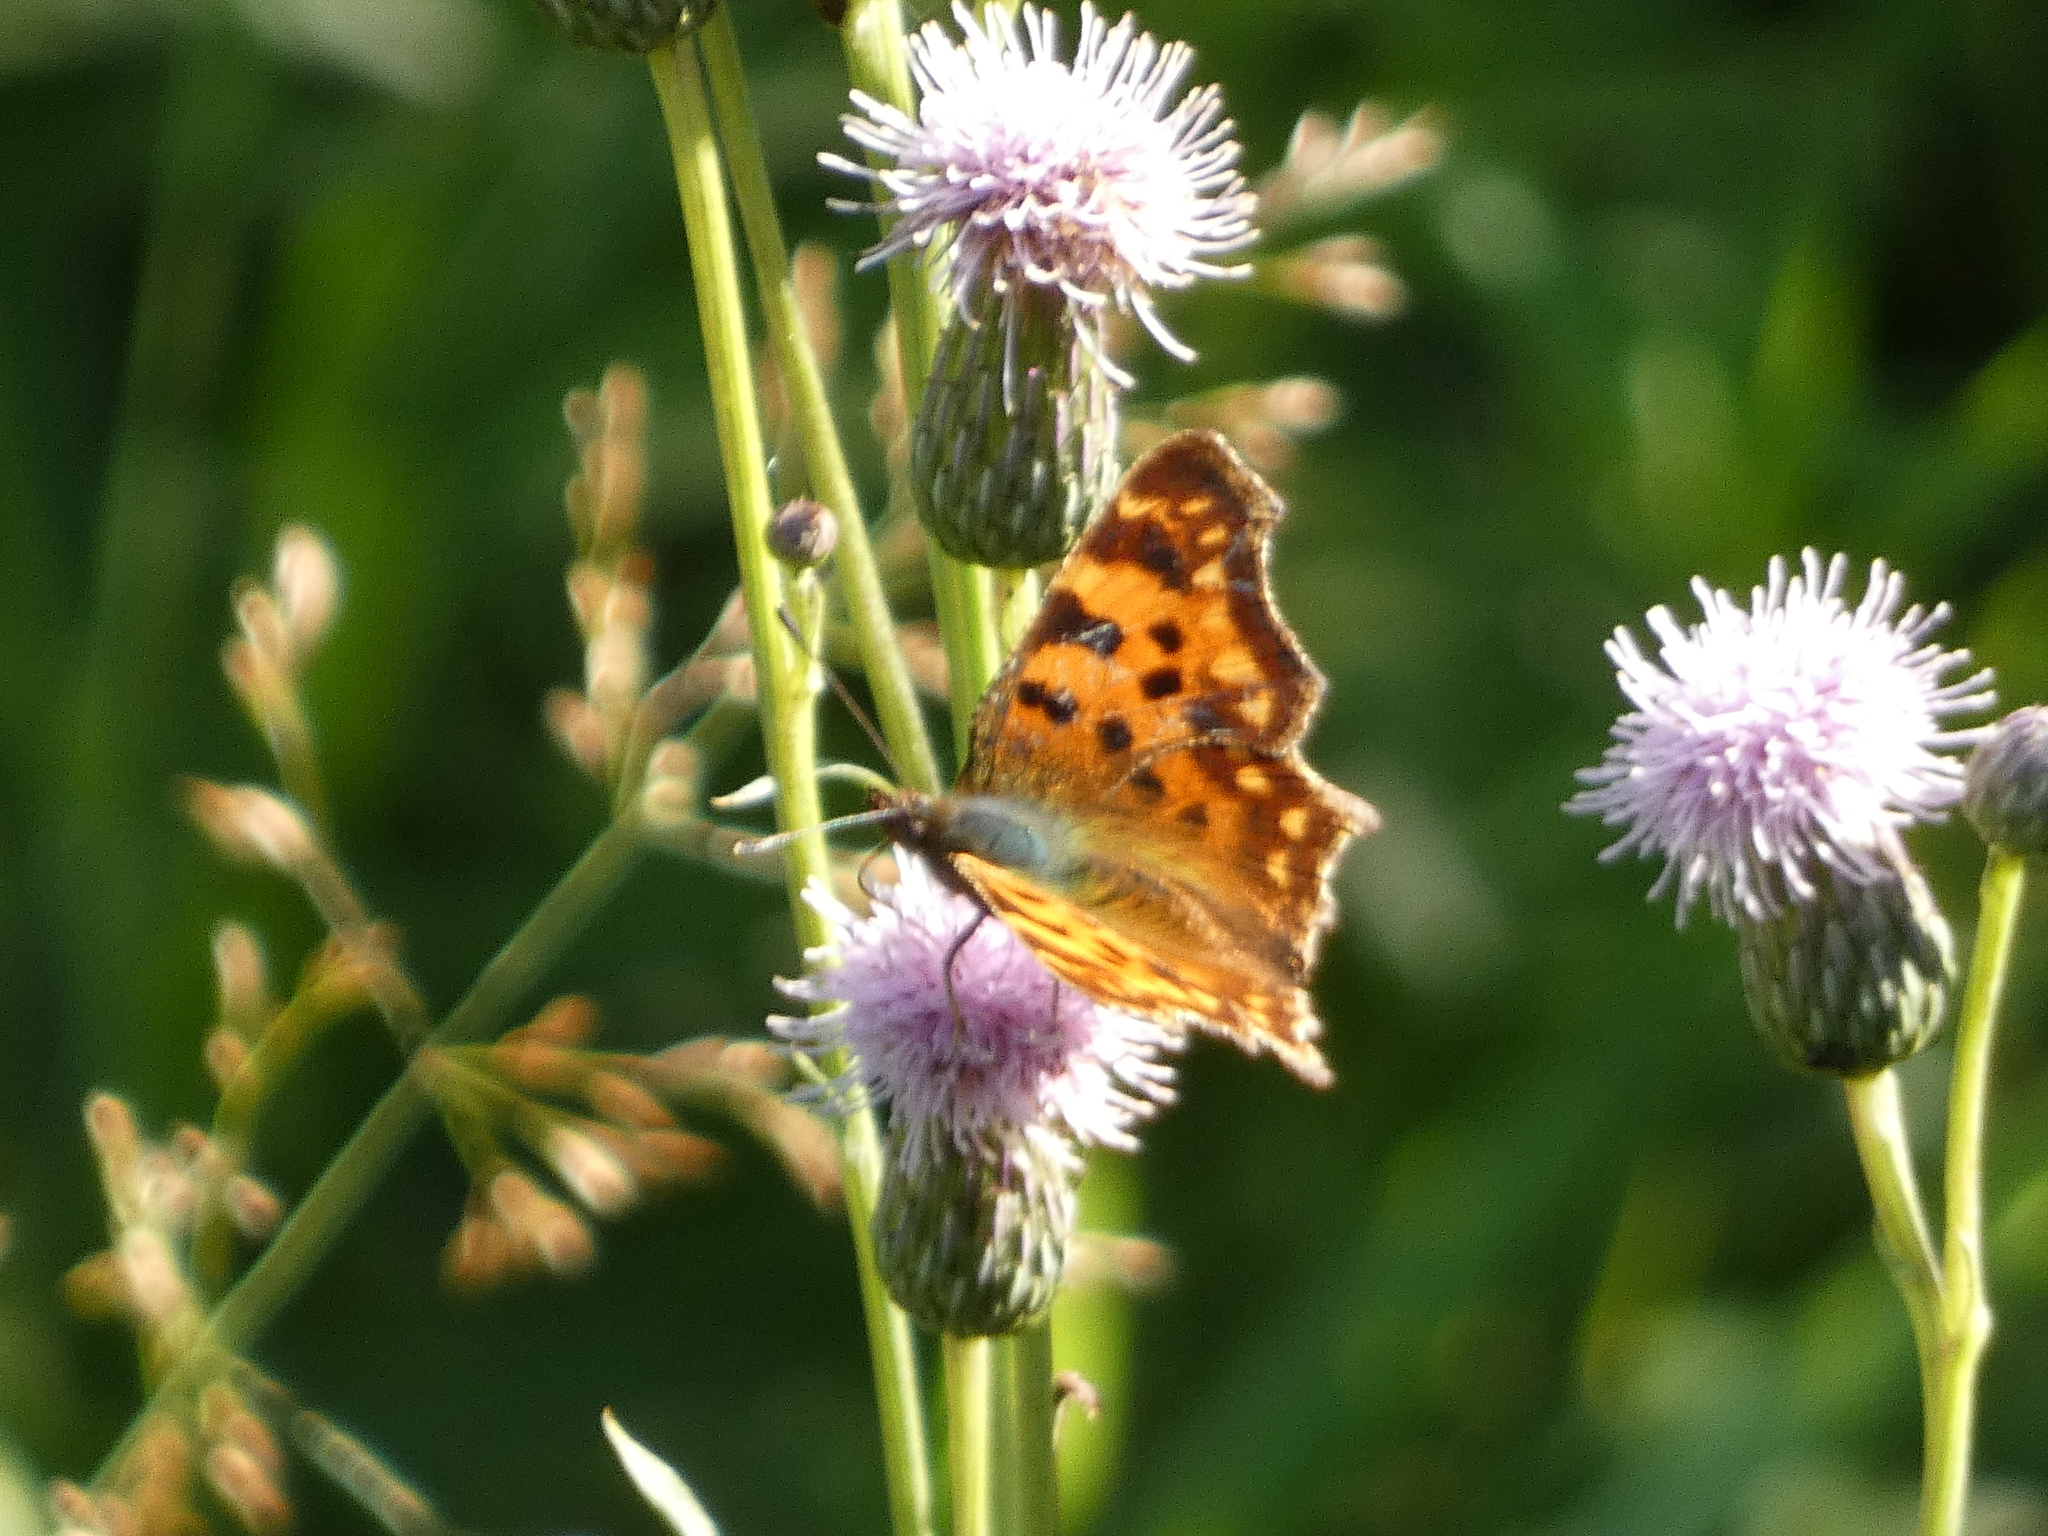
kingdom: Animalia
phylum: Arthropoda
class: Insecta
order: Lepidoptera
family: Nymphalidae
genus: Polygonia
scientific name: Polygonia c-album
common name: Comma
